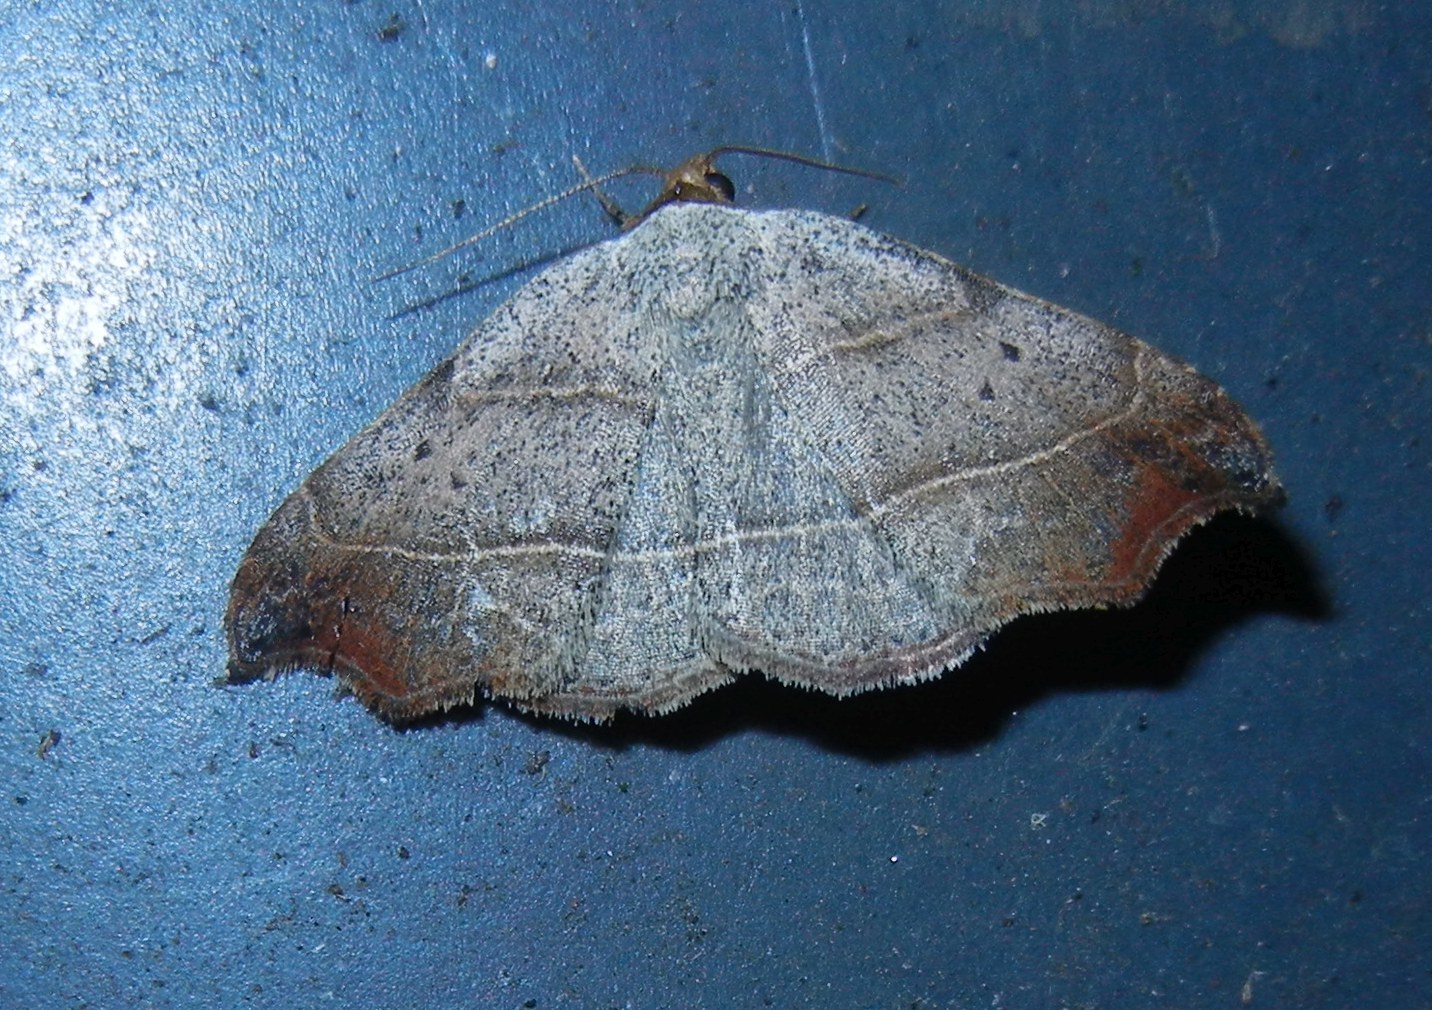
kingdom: Animalia
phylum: Arthropoda
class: Insecta
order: Lepidoptera
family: Erebidae
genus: Laspeyria
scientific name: Laspeyria flexula
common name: Beautiful hook-tip
